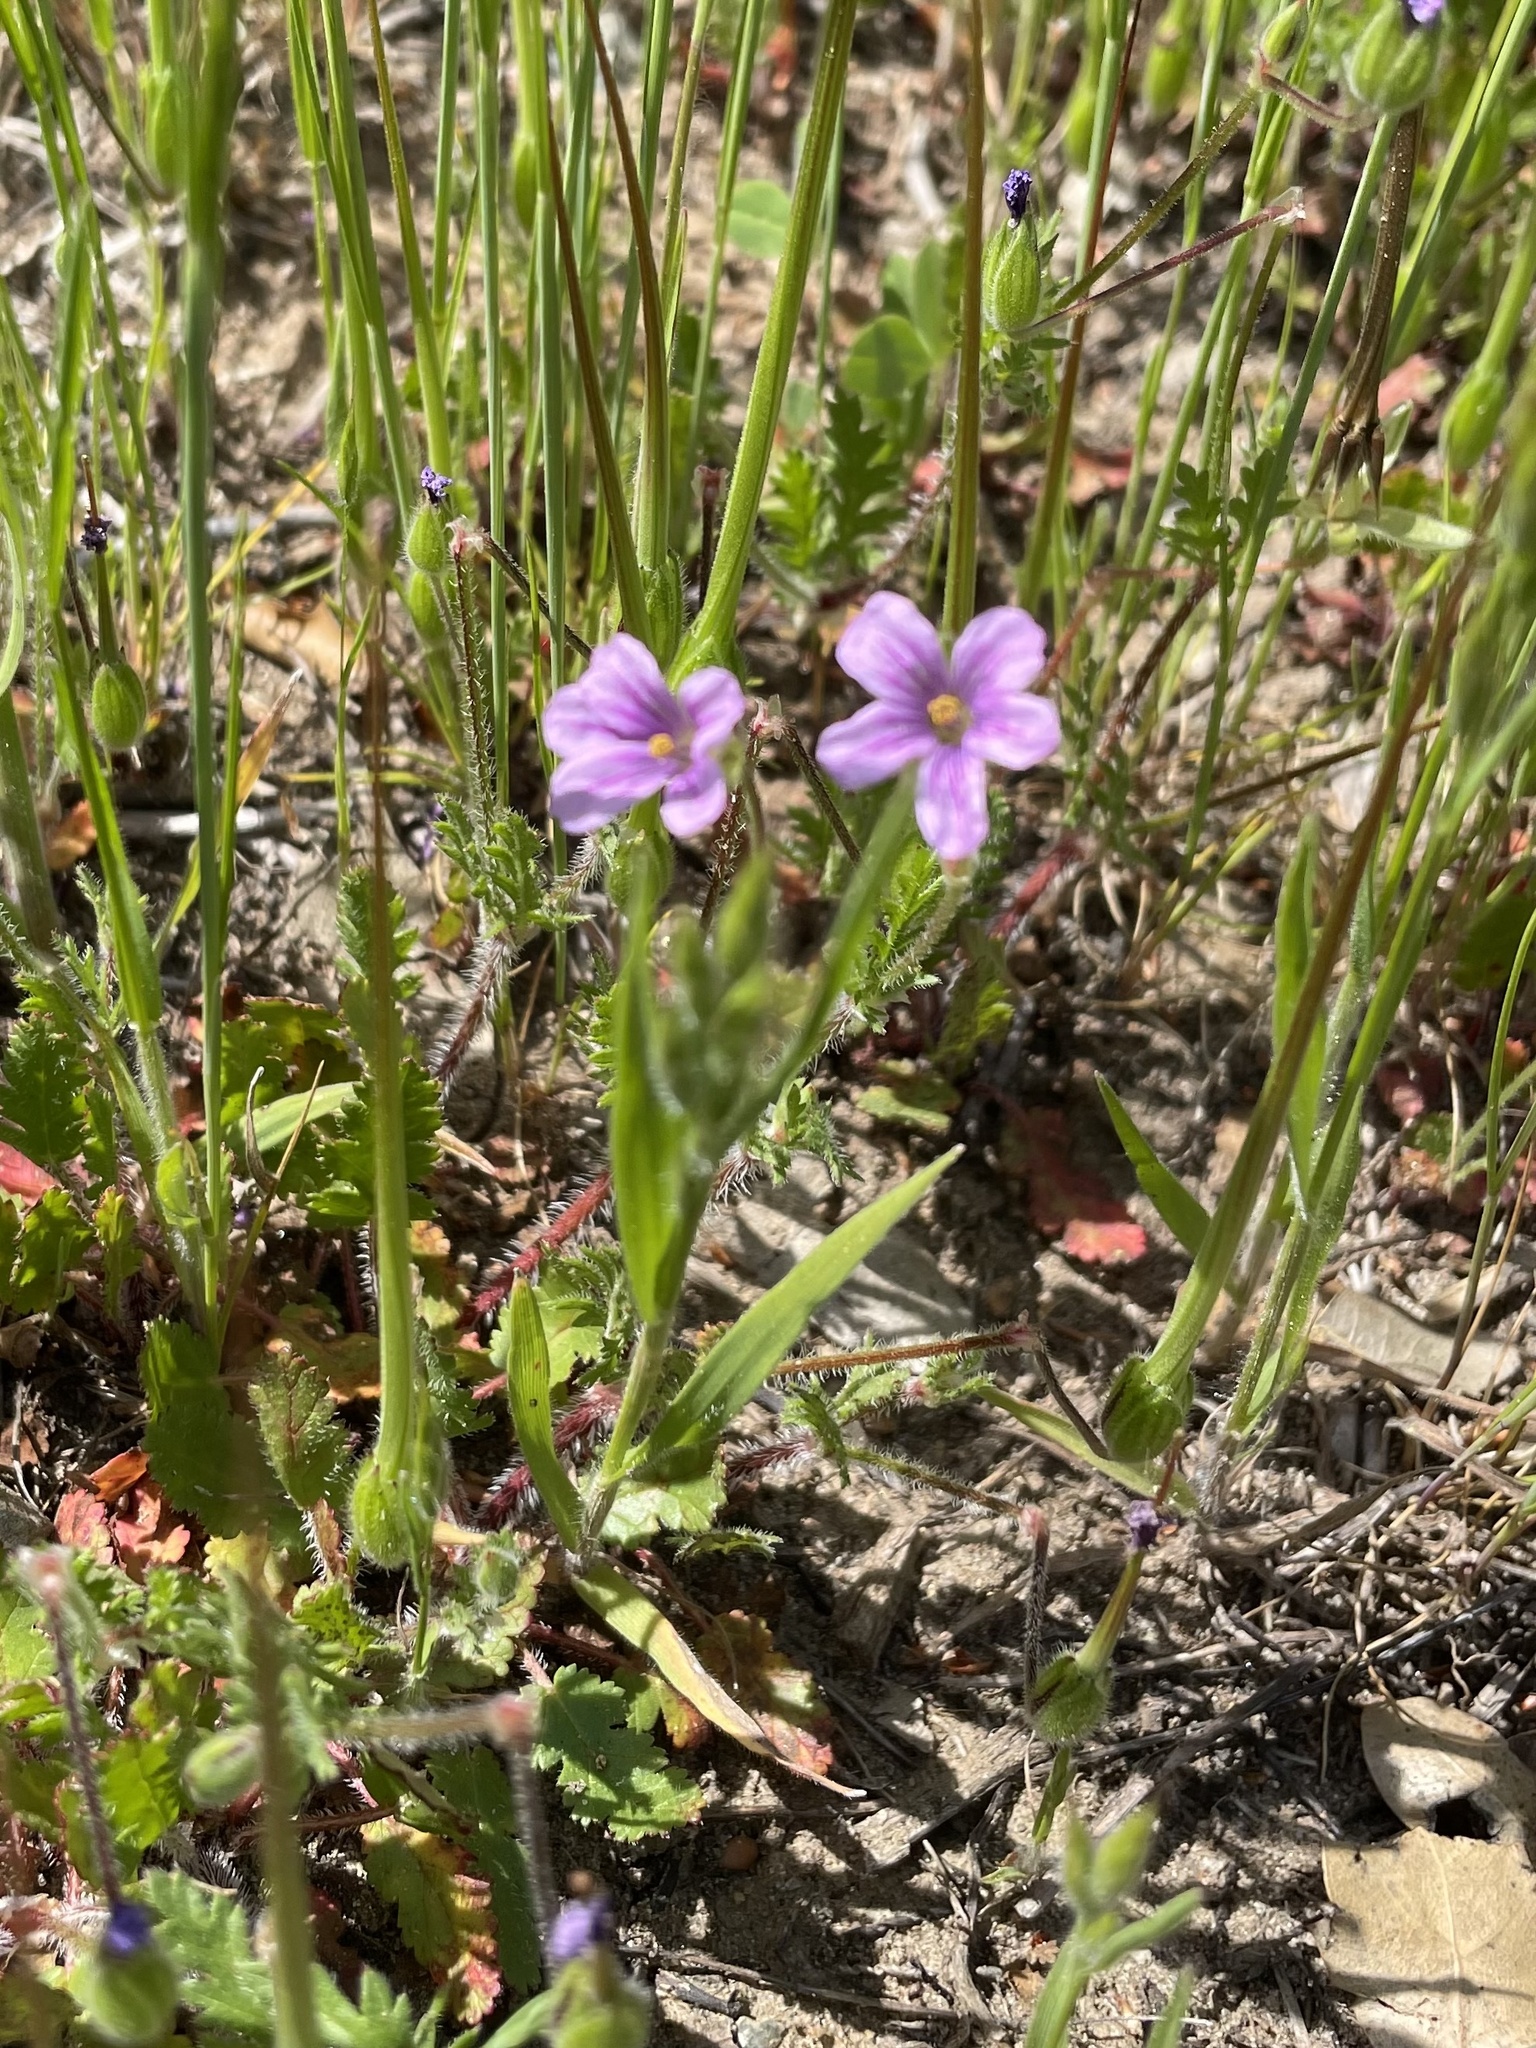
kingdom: Plantae
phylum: Tracheophyta
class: Magnoliopsida
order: Geraniales
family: Geraniaceae
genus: Erodium
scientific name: Erodium botrys
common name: Mediterranean stork's-bill
